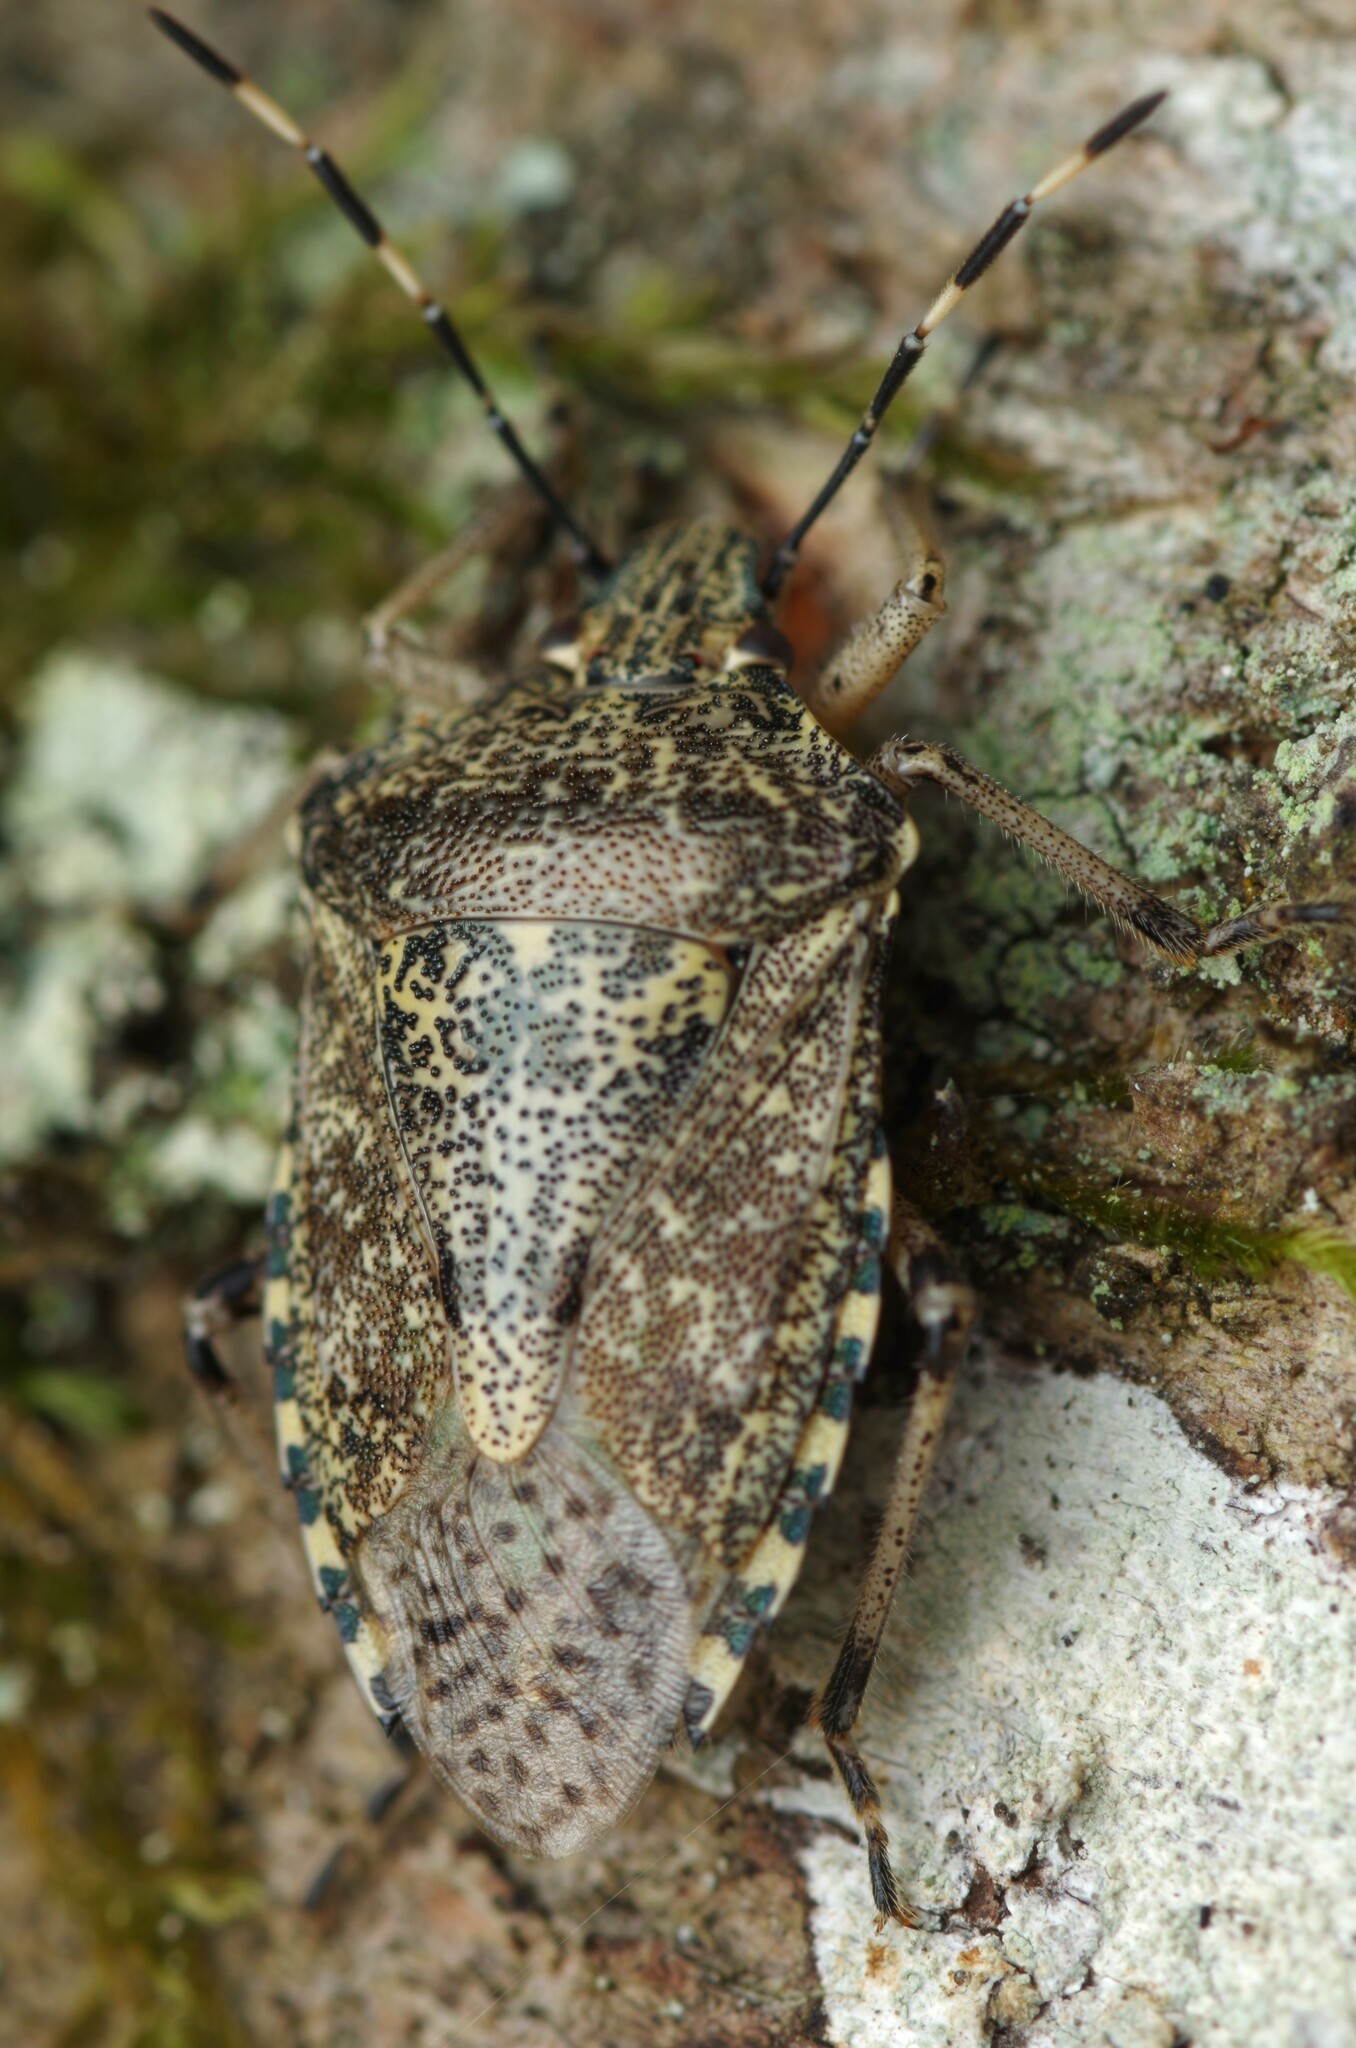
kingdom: Animalia
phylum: Arthropoda
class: Insecta
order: Hemiptera
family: Pentatomidae
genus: Rhaphigaster
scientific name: Rhaphigaster nebulosa
